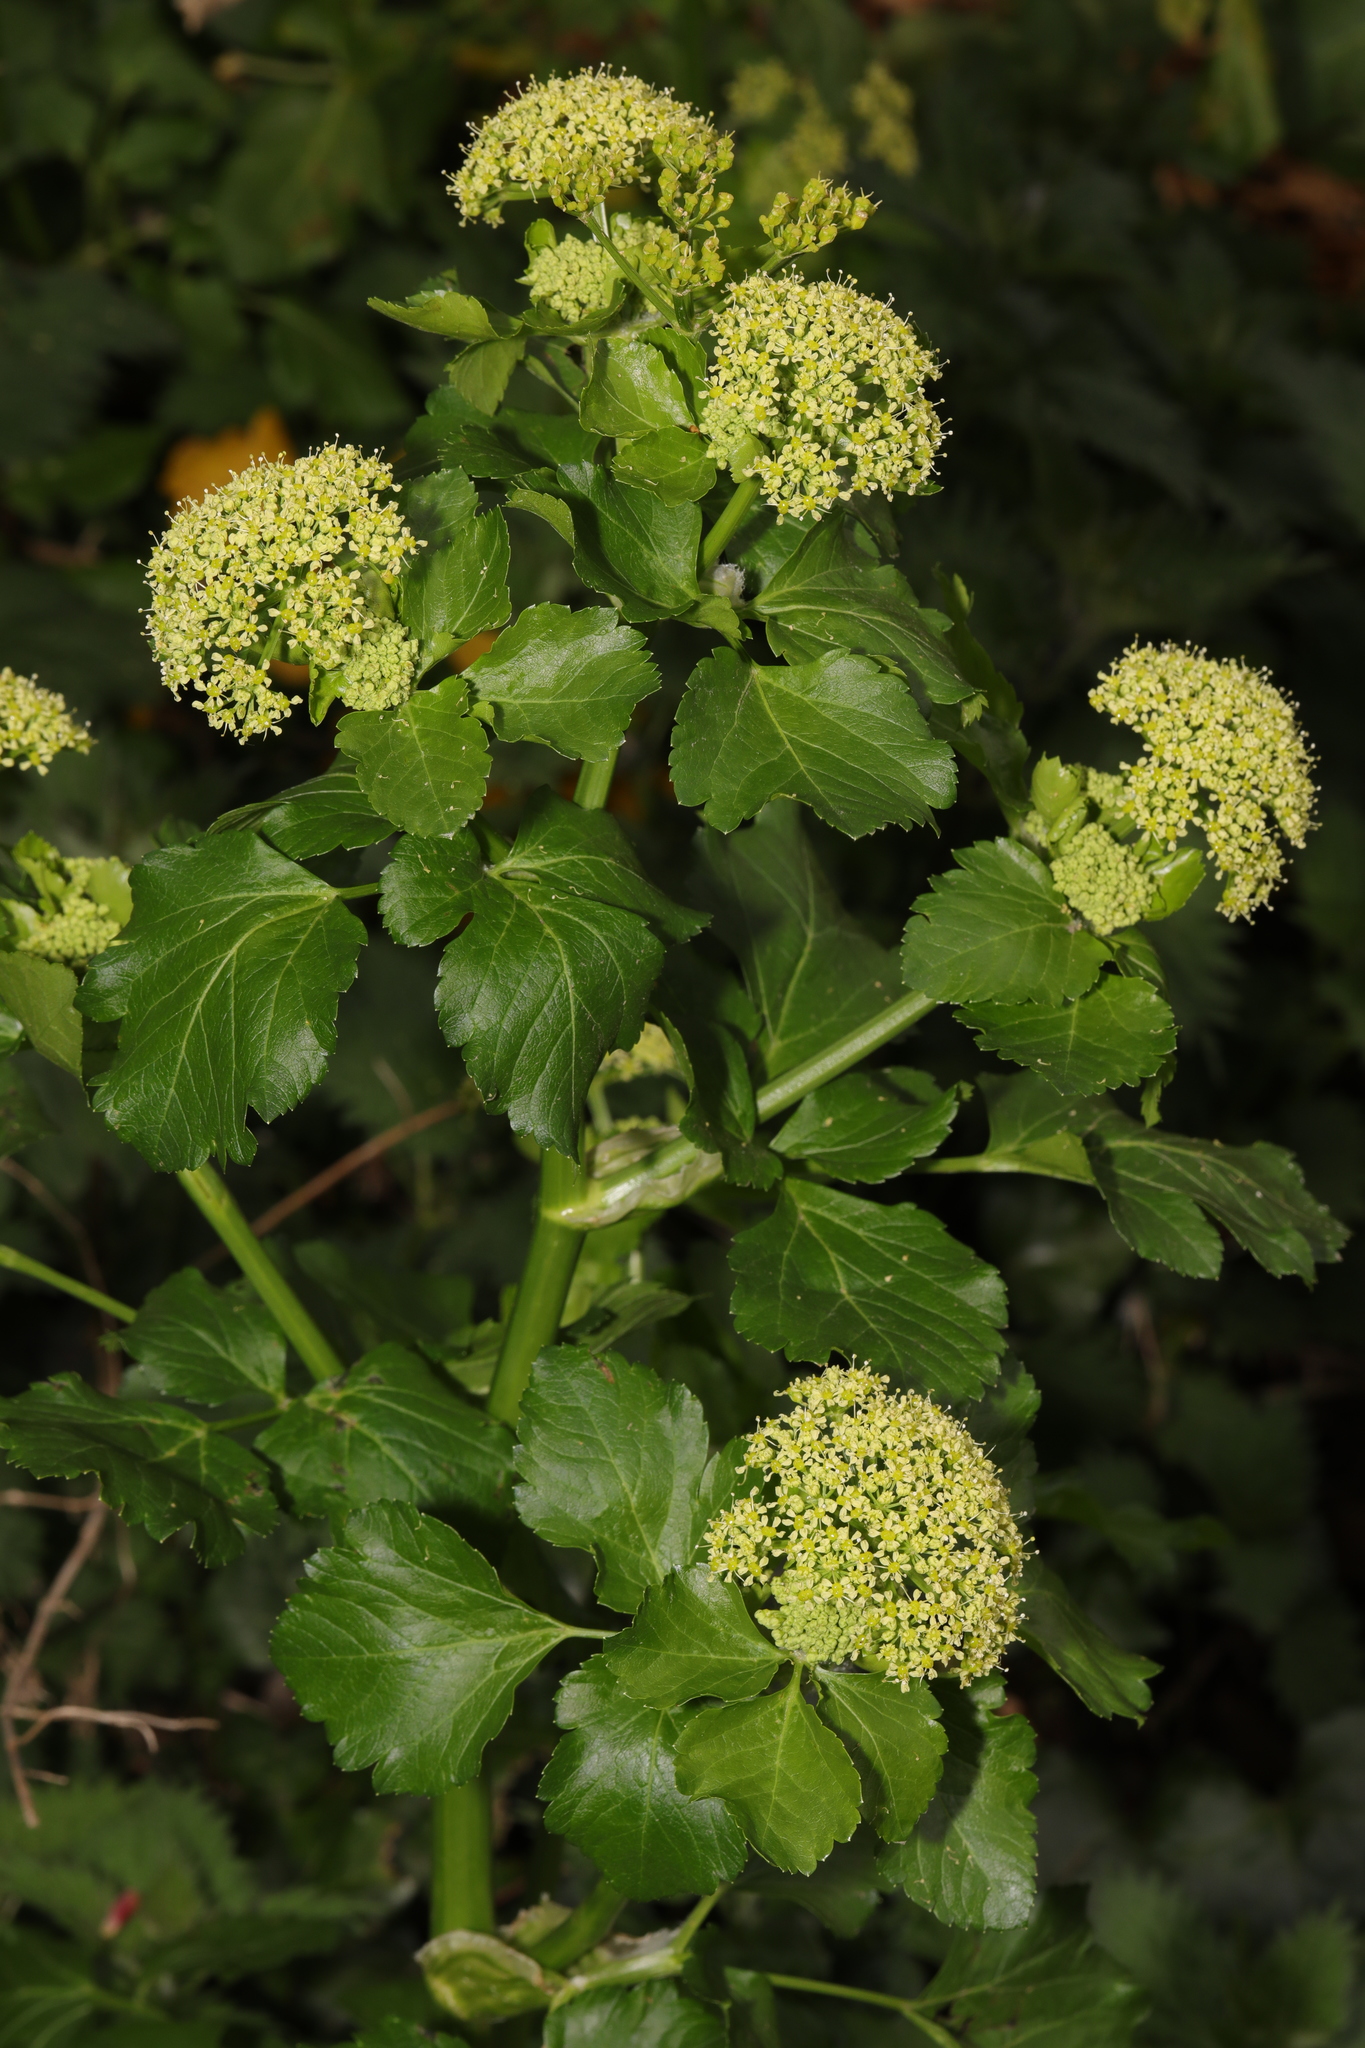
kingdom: Plantae
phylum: Tracheophyta
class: Magnoliopsida
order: Apiales
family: Apiaceae
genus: Smyrnium
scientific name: Smyrnium olusatrum
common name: Alexanders
